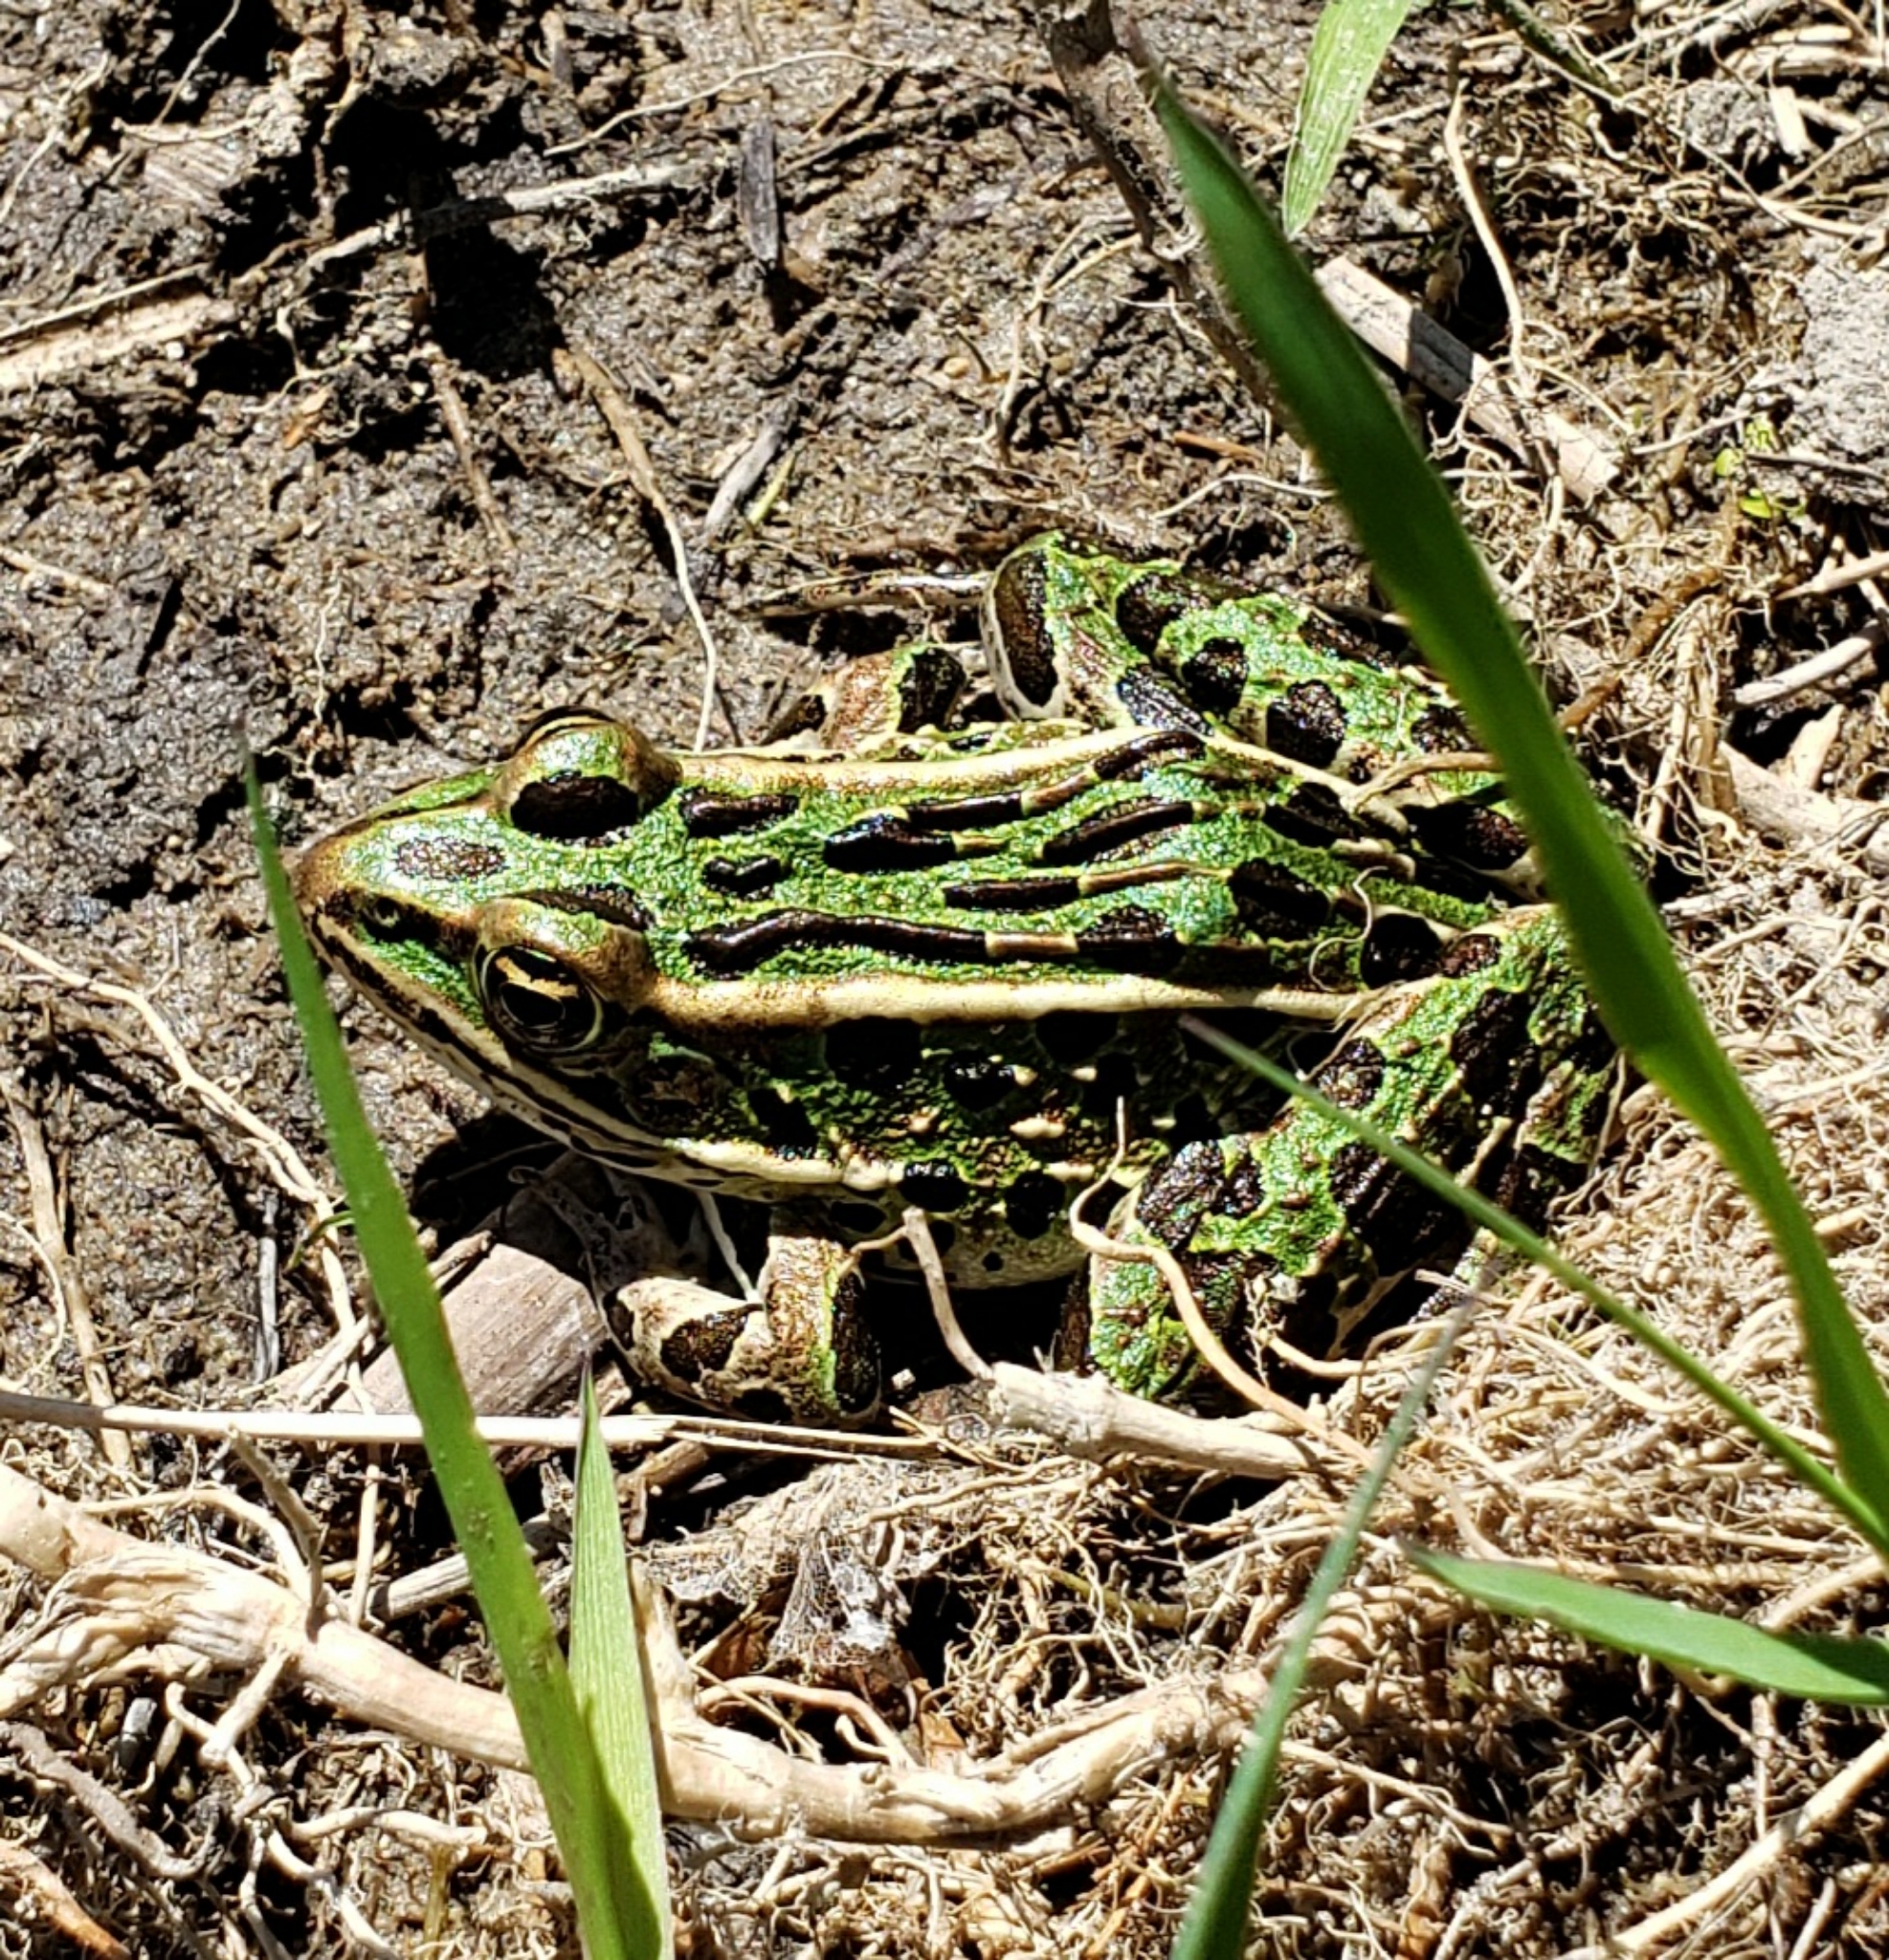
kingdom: Animalia
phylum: Chordata
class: Amphibia
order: Anura
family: Ranidae
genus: Lithobates
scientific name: Lithobates pipiens
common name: Northern leopard frog
